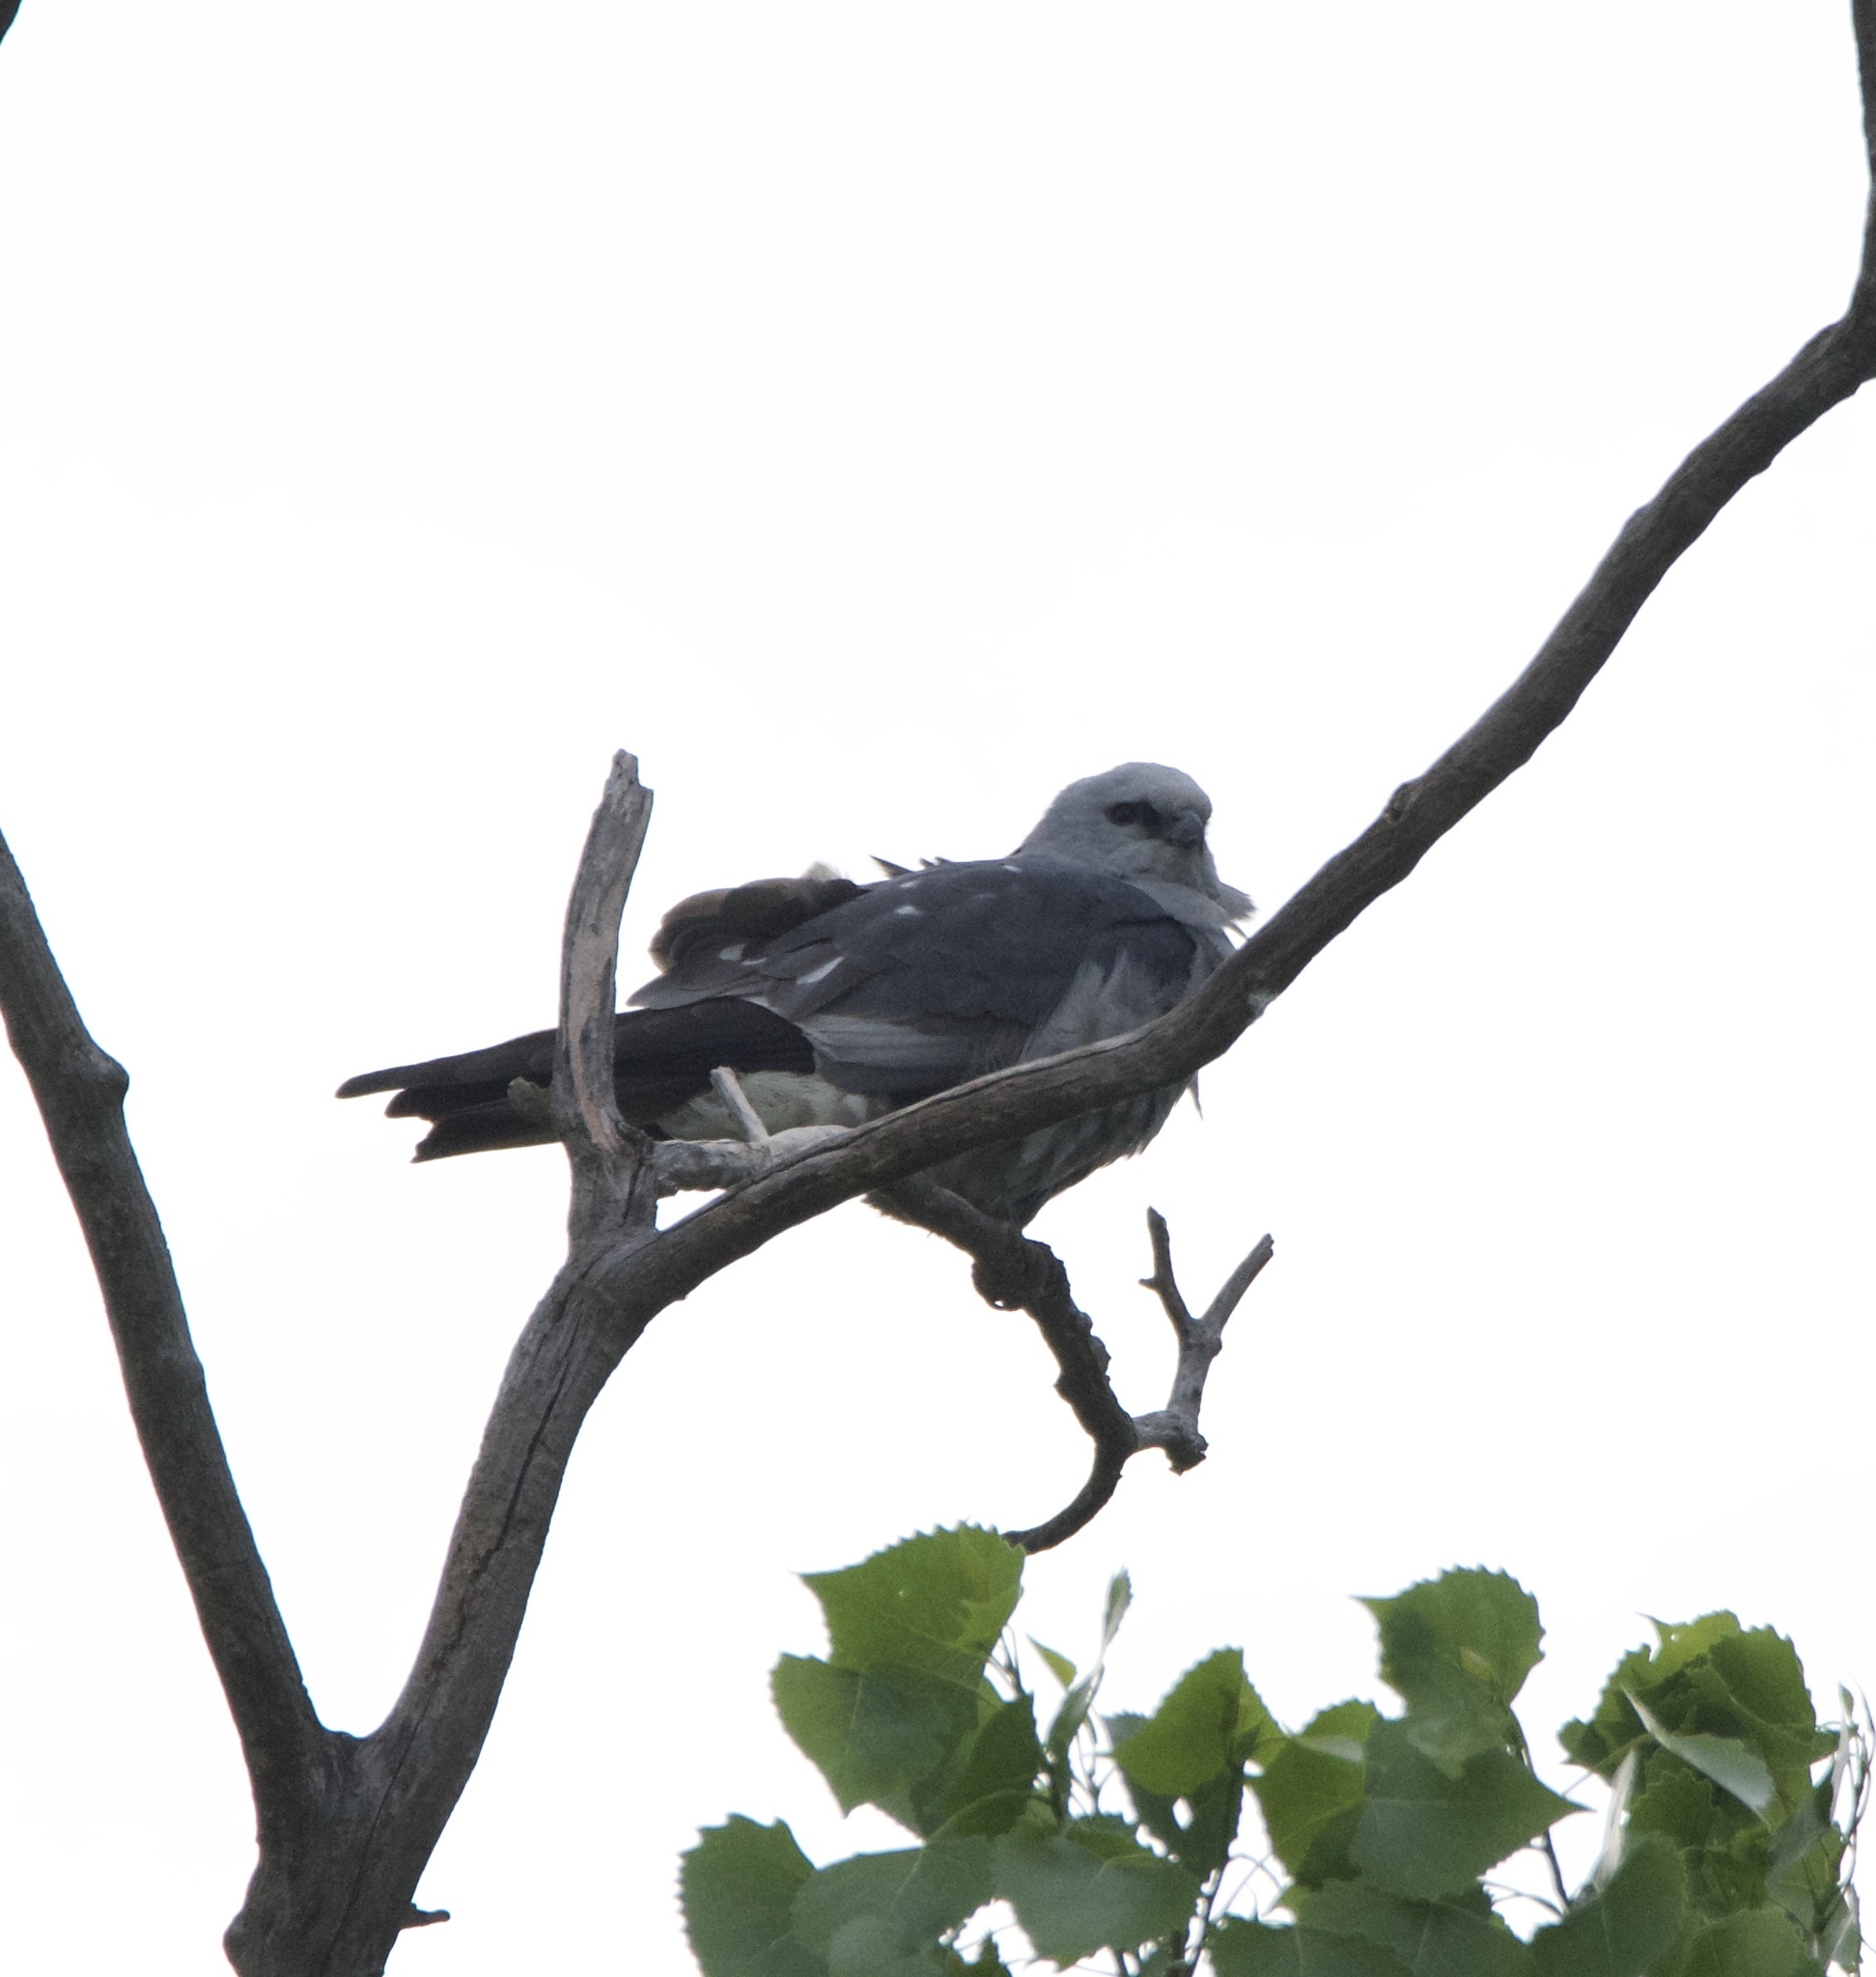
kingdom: Animalia
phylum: Chordata
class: Aves
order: Accipitriformes
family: Accipitridae
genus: Ictinia
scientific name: Ictinia mississippiensis
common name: Mississippi kite
